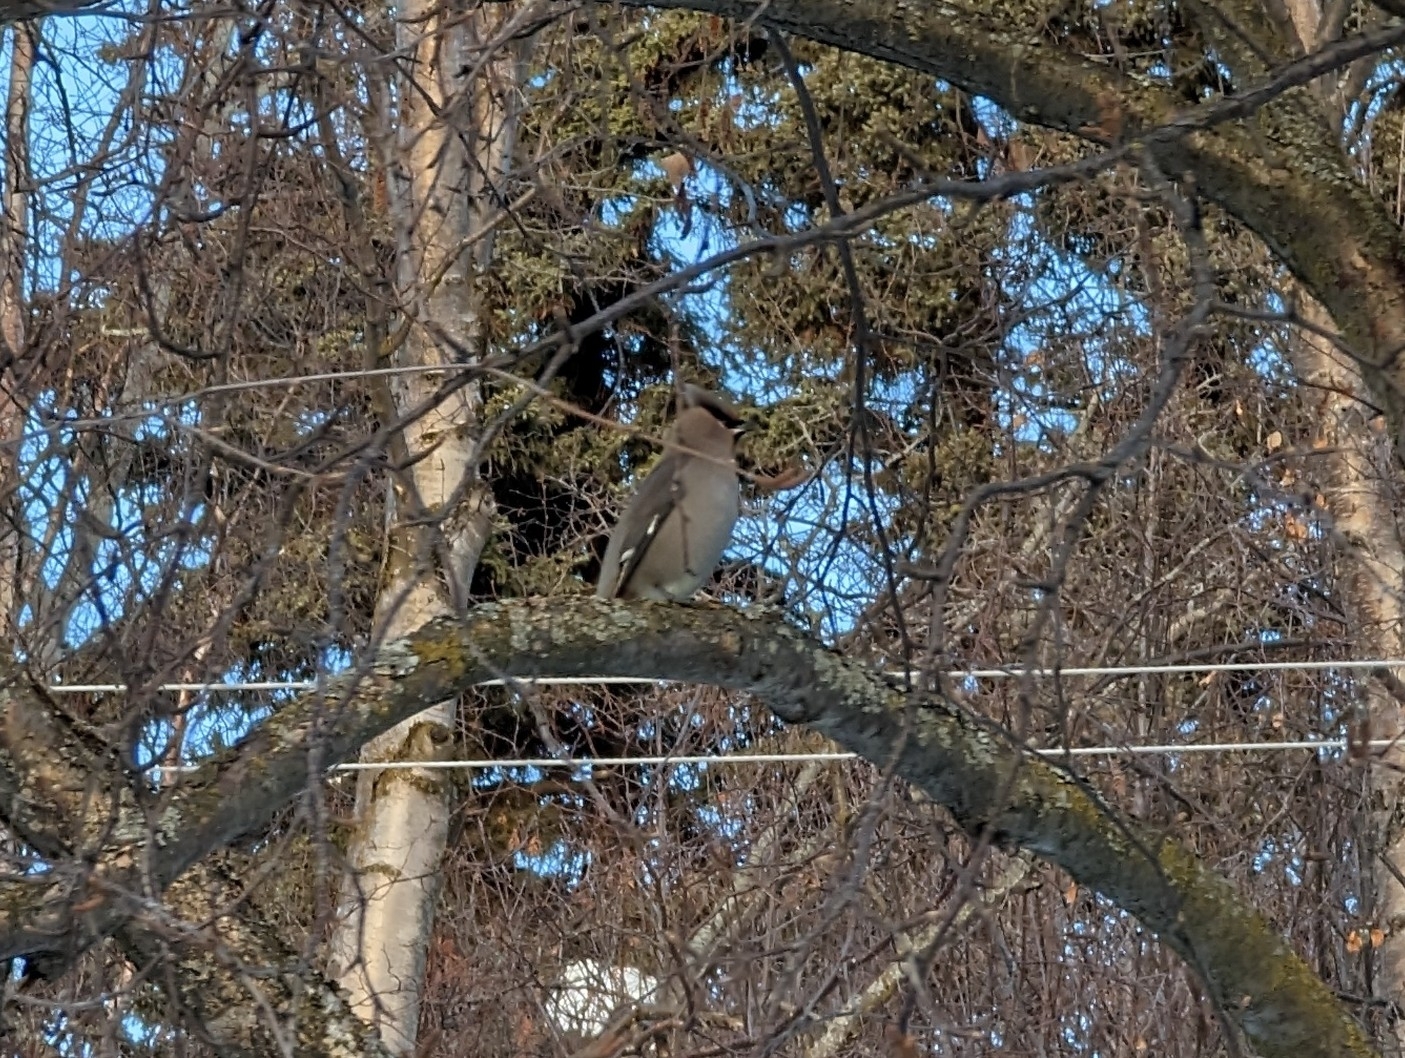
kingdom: Animalia
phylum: Chordata
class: Aves
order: Passeriformes
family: Bombycillidae
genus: Bombycilla
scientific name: Bombycilla garrulus
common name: Bohemian waxwing
